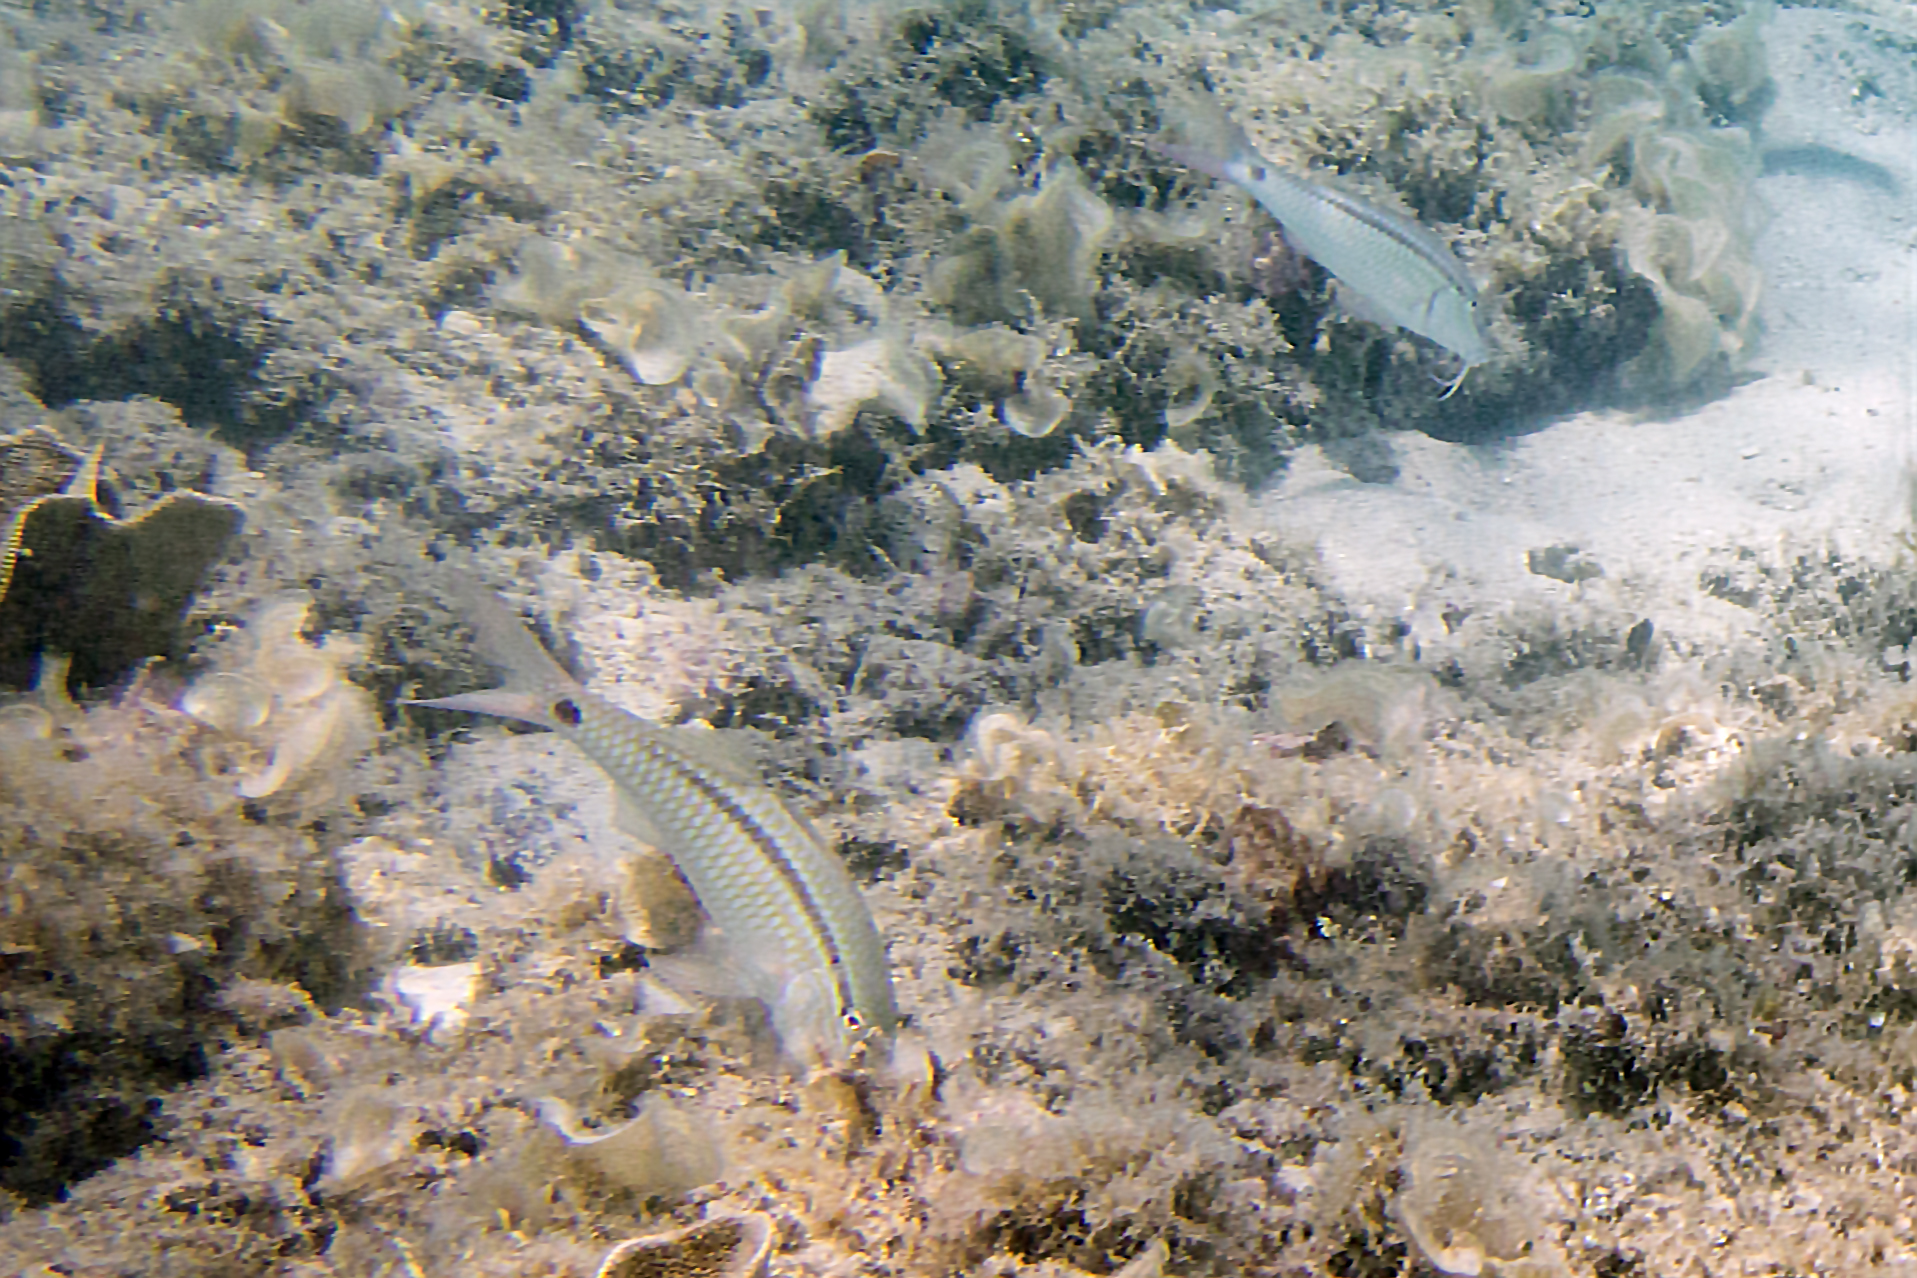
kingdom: Animalia
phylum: Chordata
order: Perciformes
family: Mullidae
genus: Parupeneus
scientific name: Parupeneus barberinus
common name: Dash-and-dot goatfish
